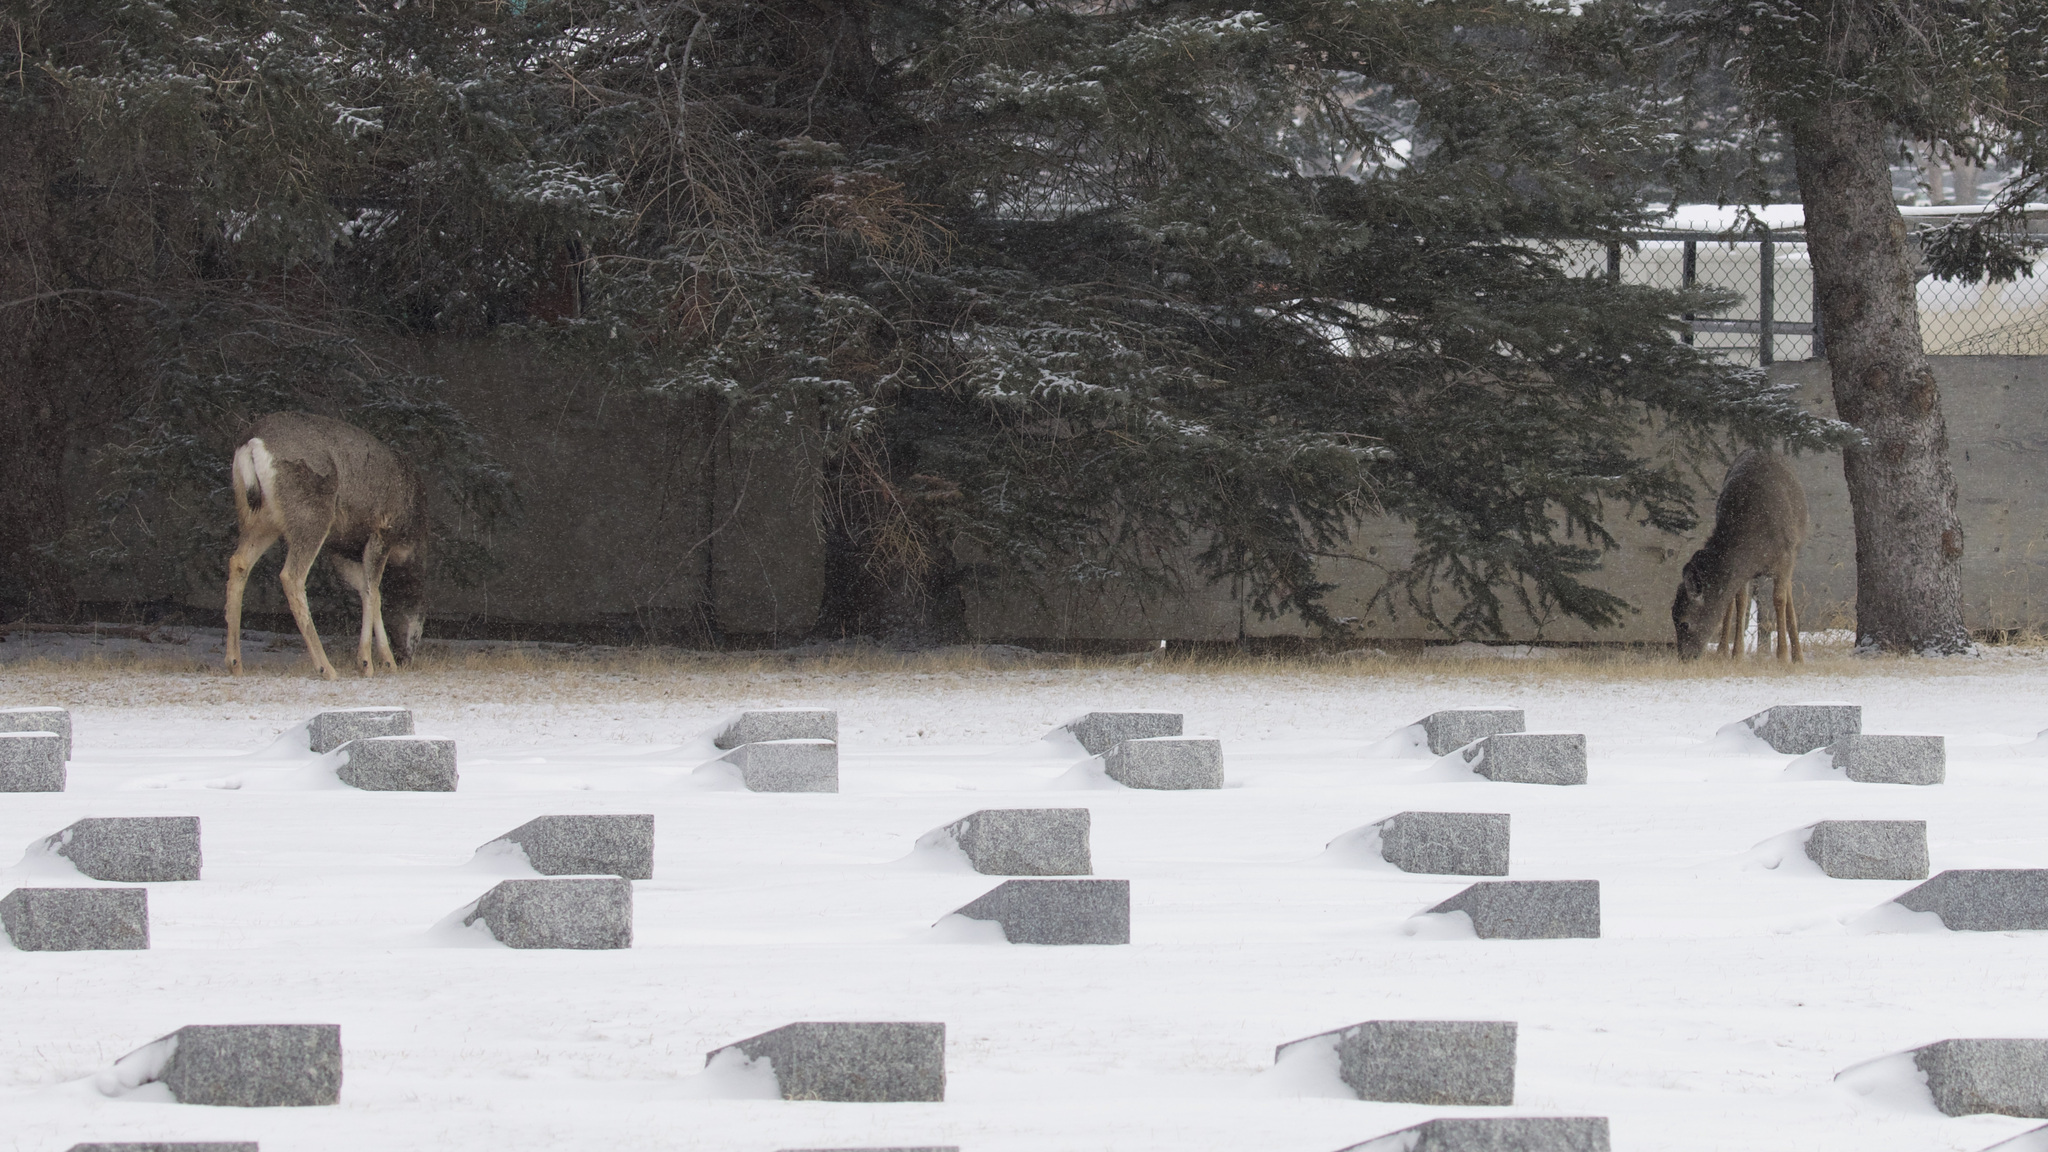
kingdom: Animalia
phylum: Chordata
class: Mammalia
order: Artiodactyla
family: Cervidae
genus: Odocoileus
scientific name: Odocoileus hemionus
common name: Mule deer
